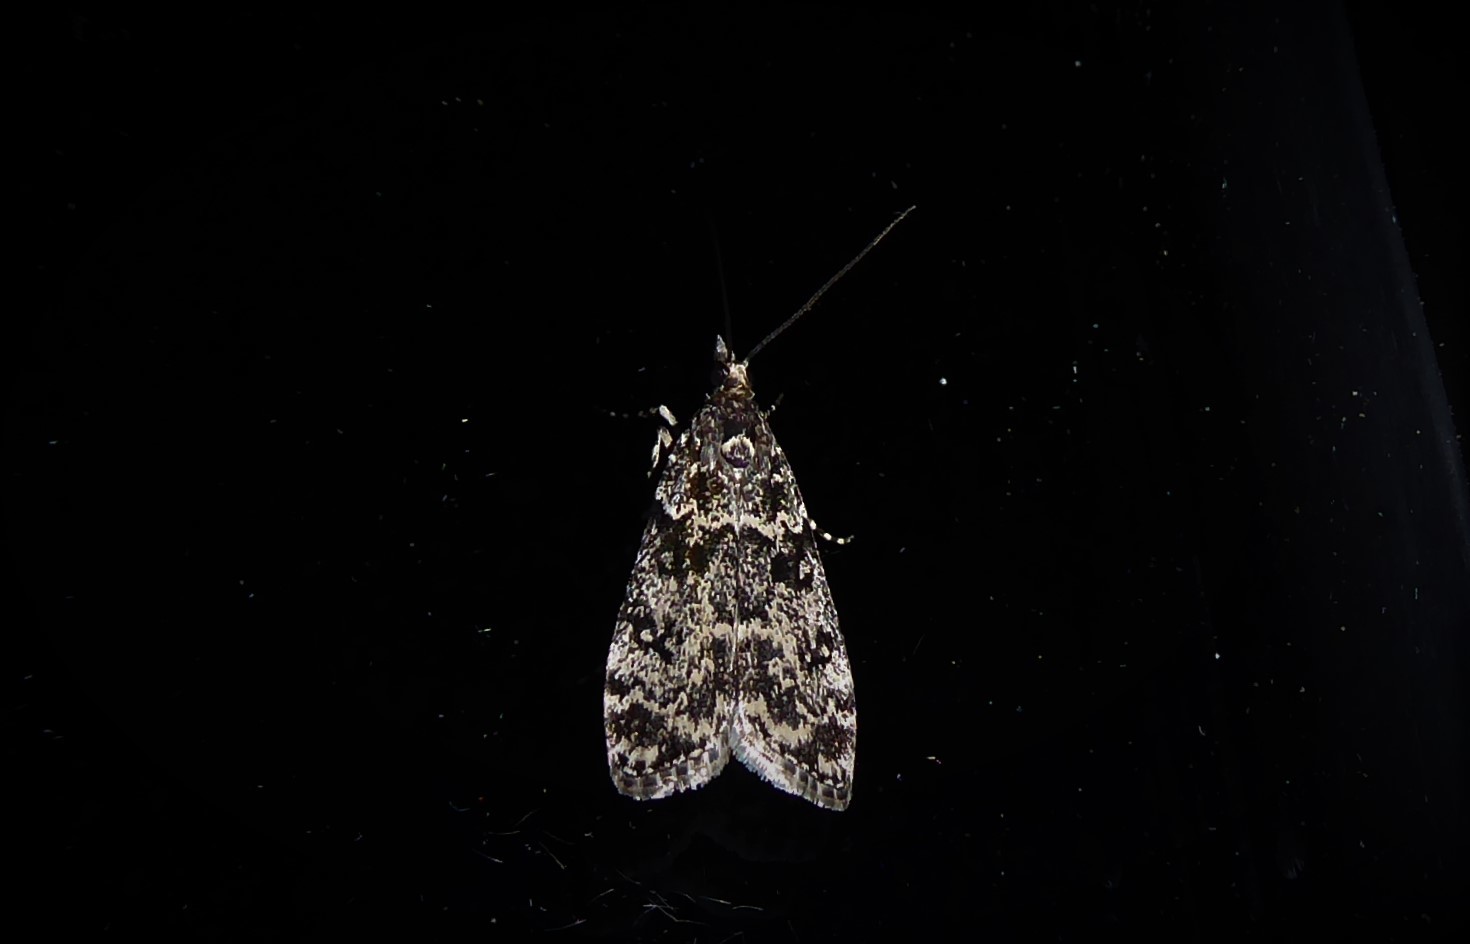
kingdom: Animalia
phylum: Arthropoda
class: Insecta
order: Lepidoptera
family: Crambidae
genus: Eudonia
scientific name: Eudonia philerga
